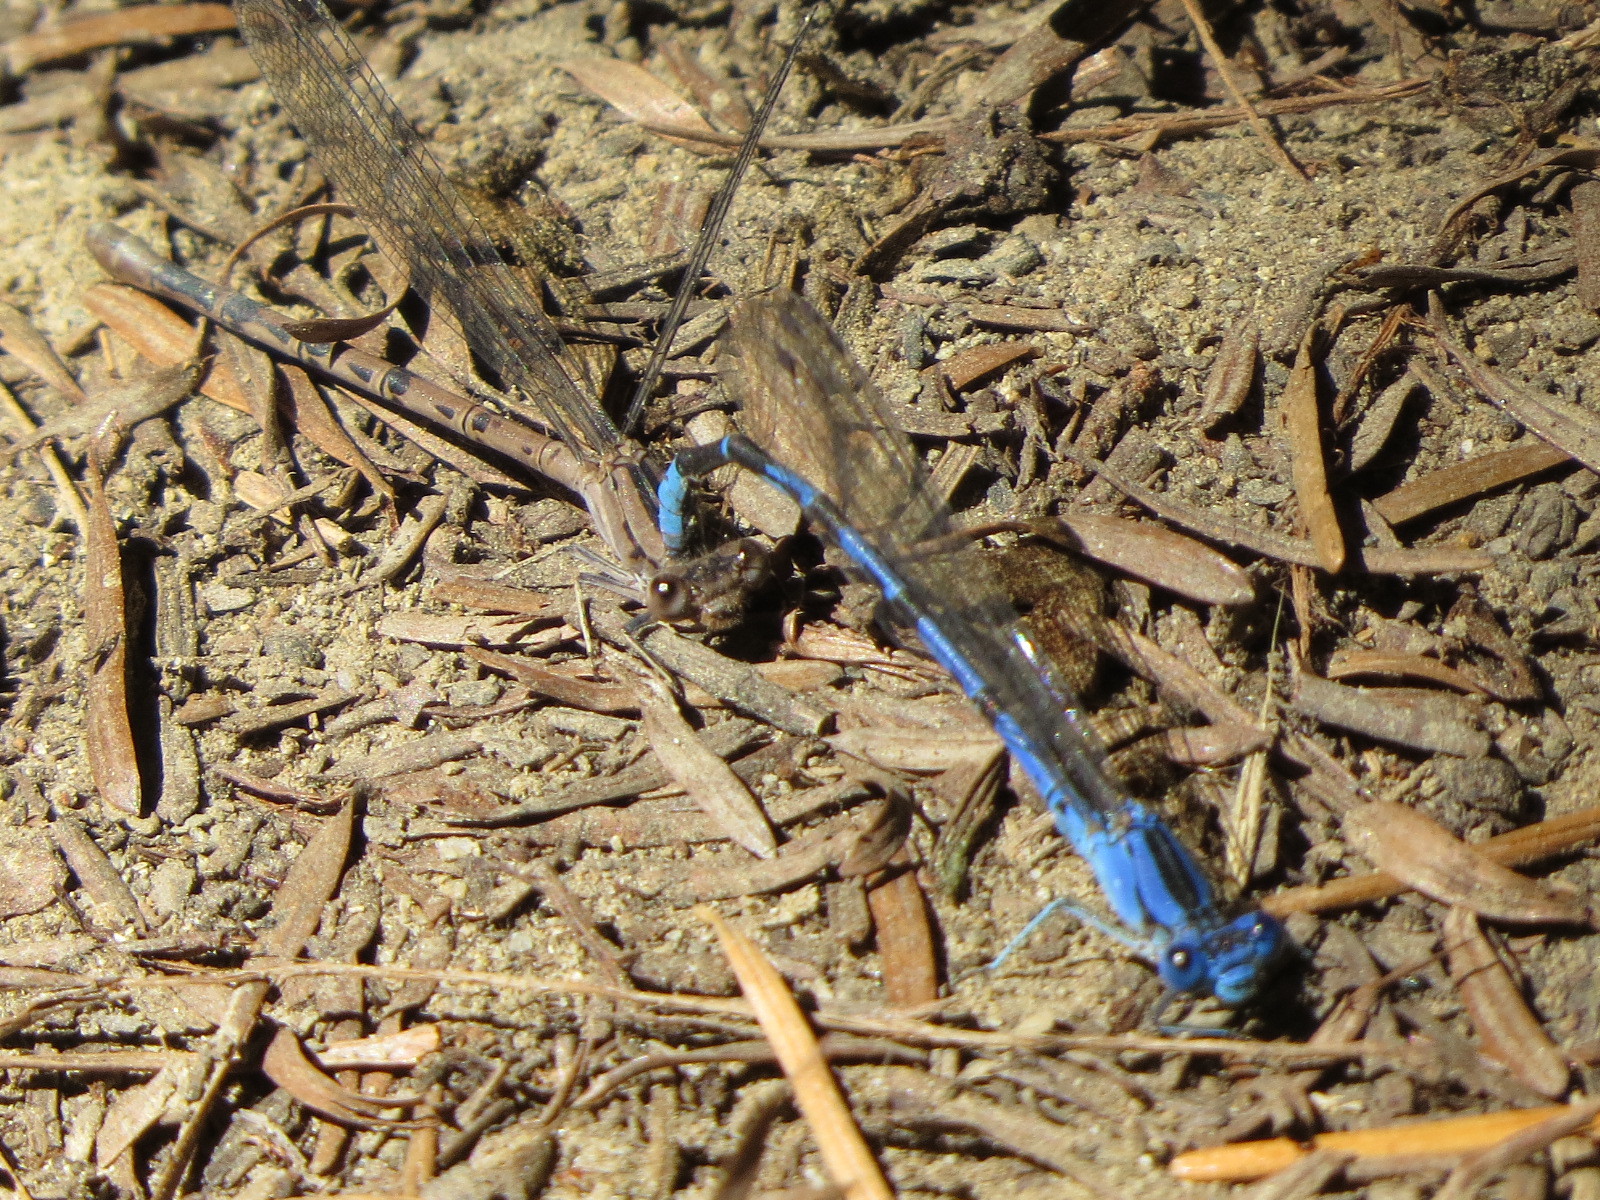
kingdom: Animalia
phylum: Arthropoda
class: Insecta
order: Odonata
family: Coenagrionidae
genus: Argia
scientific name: Argia vivida
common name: Vivid dancer
